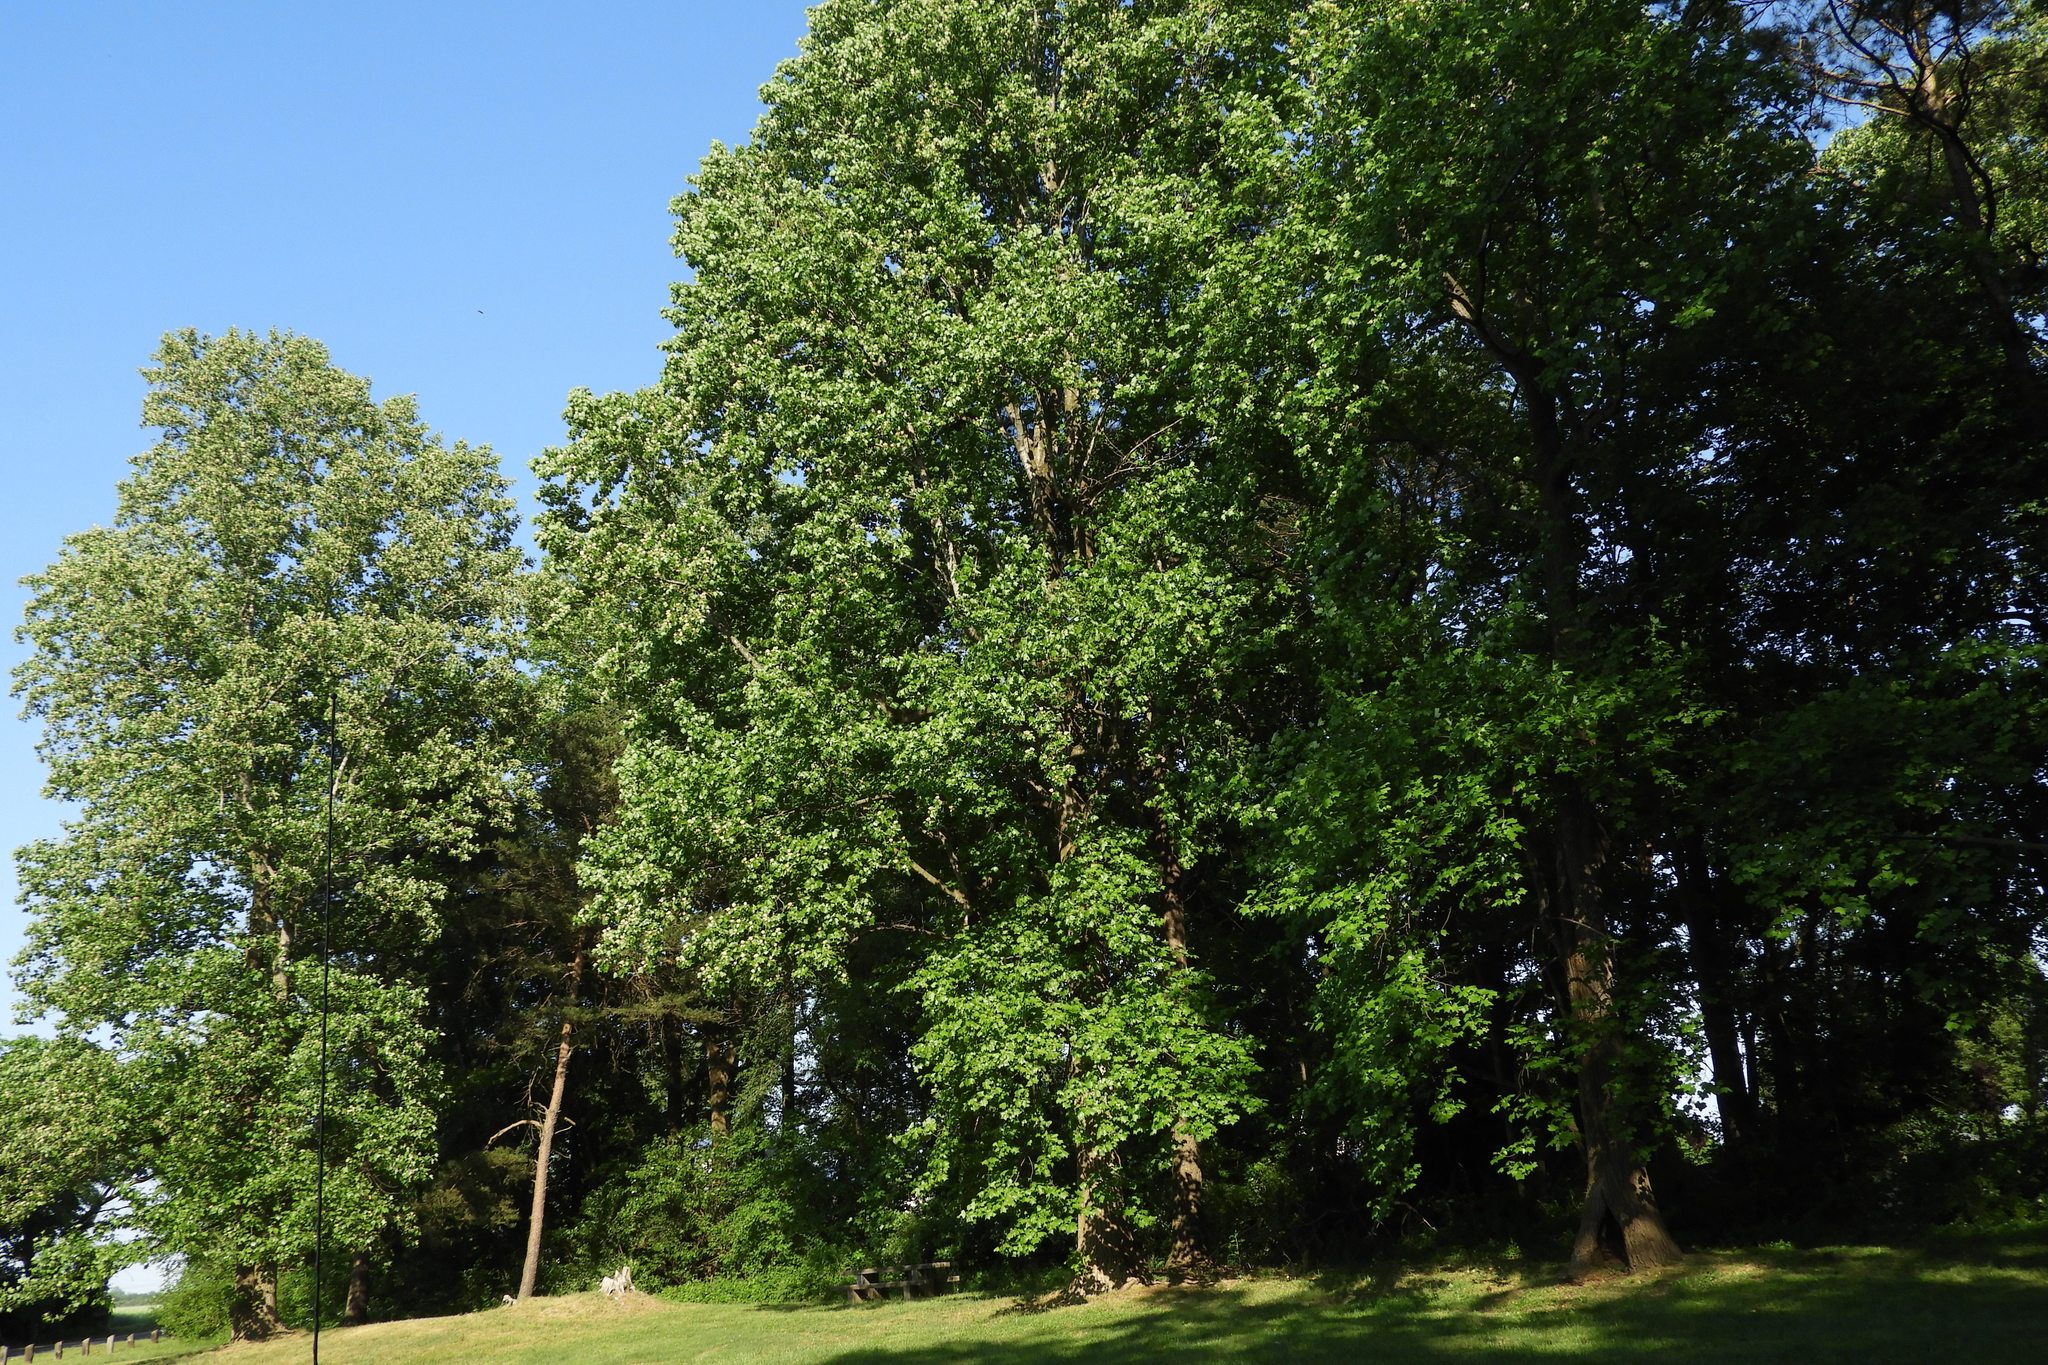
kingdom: Plantae
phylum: Tracheophyta
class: Magnoliopsida
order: Magnoliales
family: Magnoliaceae
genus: Liriodendron
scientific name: Liriodendron tulipifera
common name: Tulip tree
